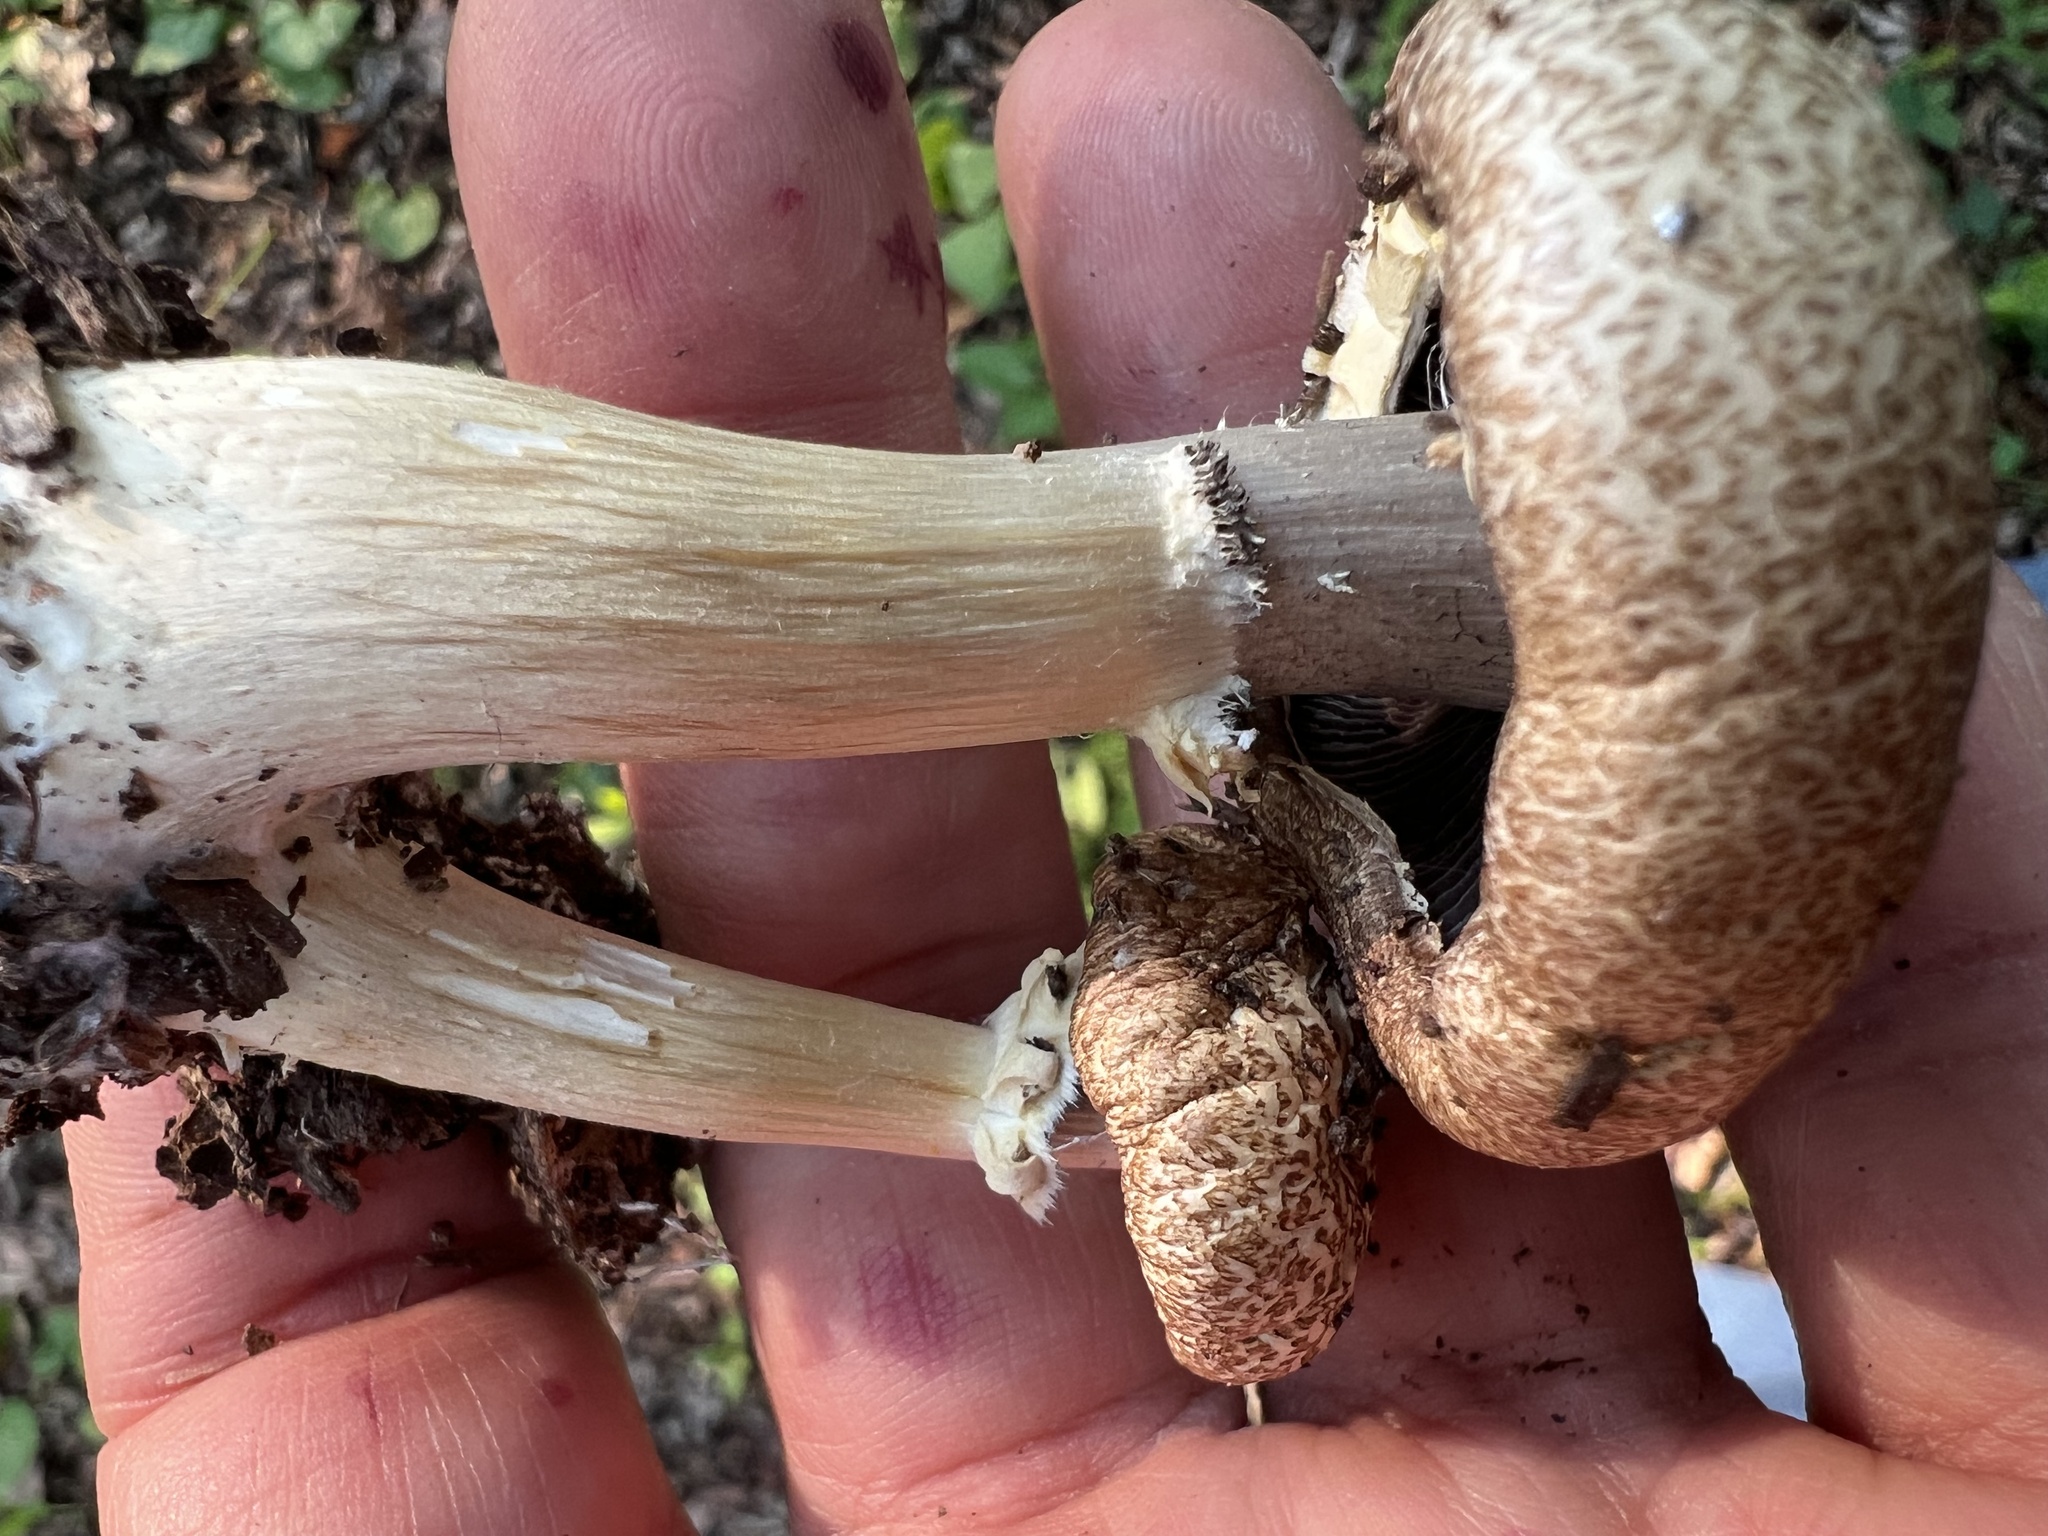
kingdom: Fungi
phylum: Basidiomycota
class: Agaricomycetes
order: Agaricales
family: Strophariaceae
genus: Stropharia
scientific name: Stropharia rugosoannulata
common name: Wine roundhead
